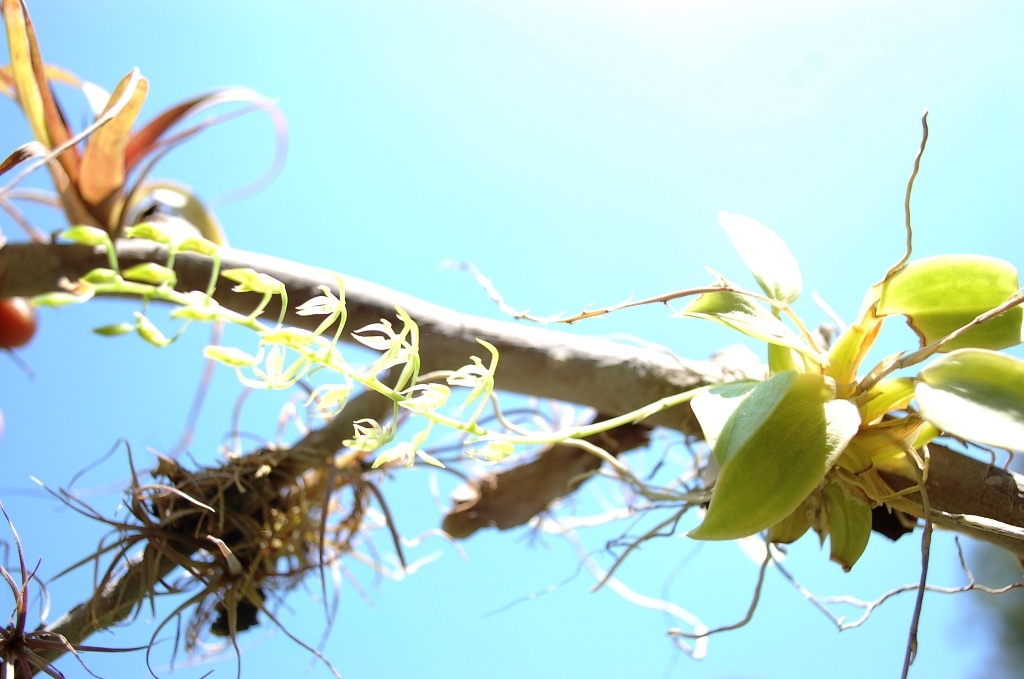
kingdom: Plantae
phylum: Tracheophyta
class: Liliopsida
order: Asparagales
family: Orchidaceae
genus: Notylia
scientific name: Notylia orbicularis
